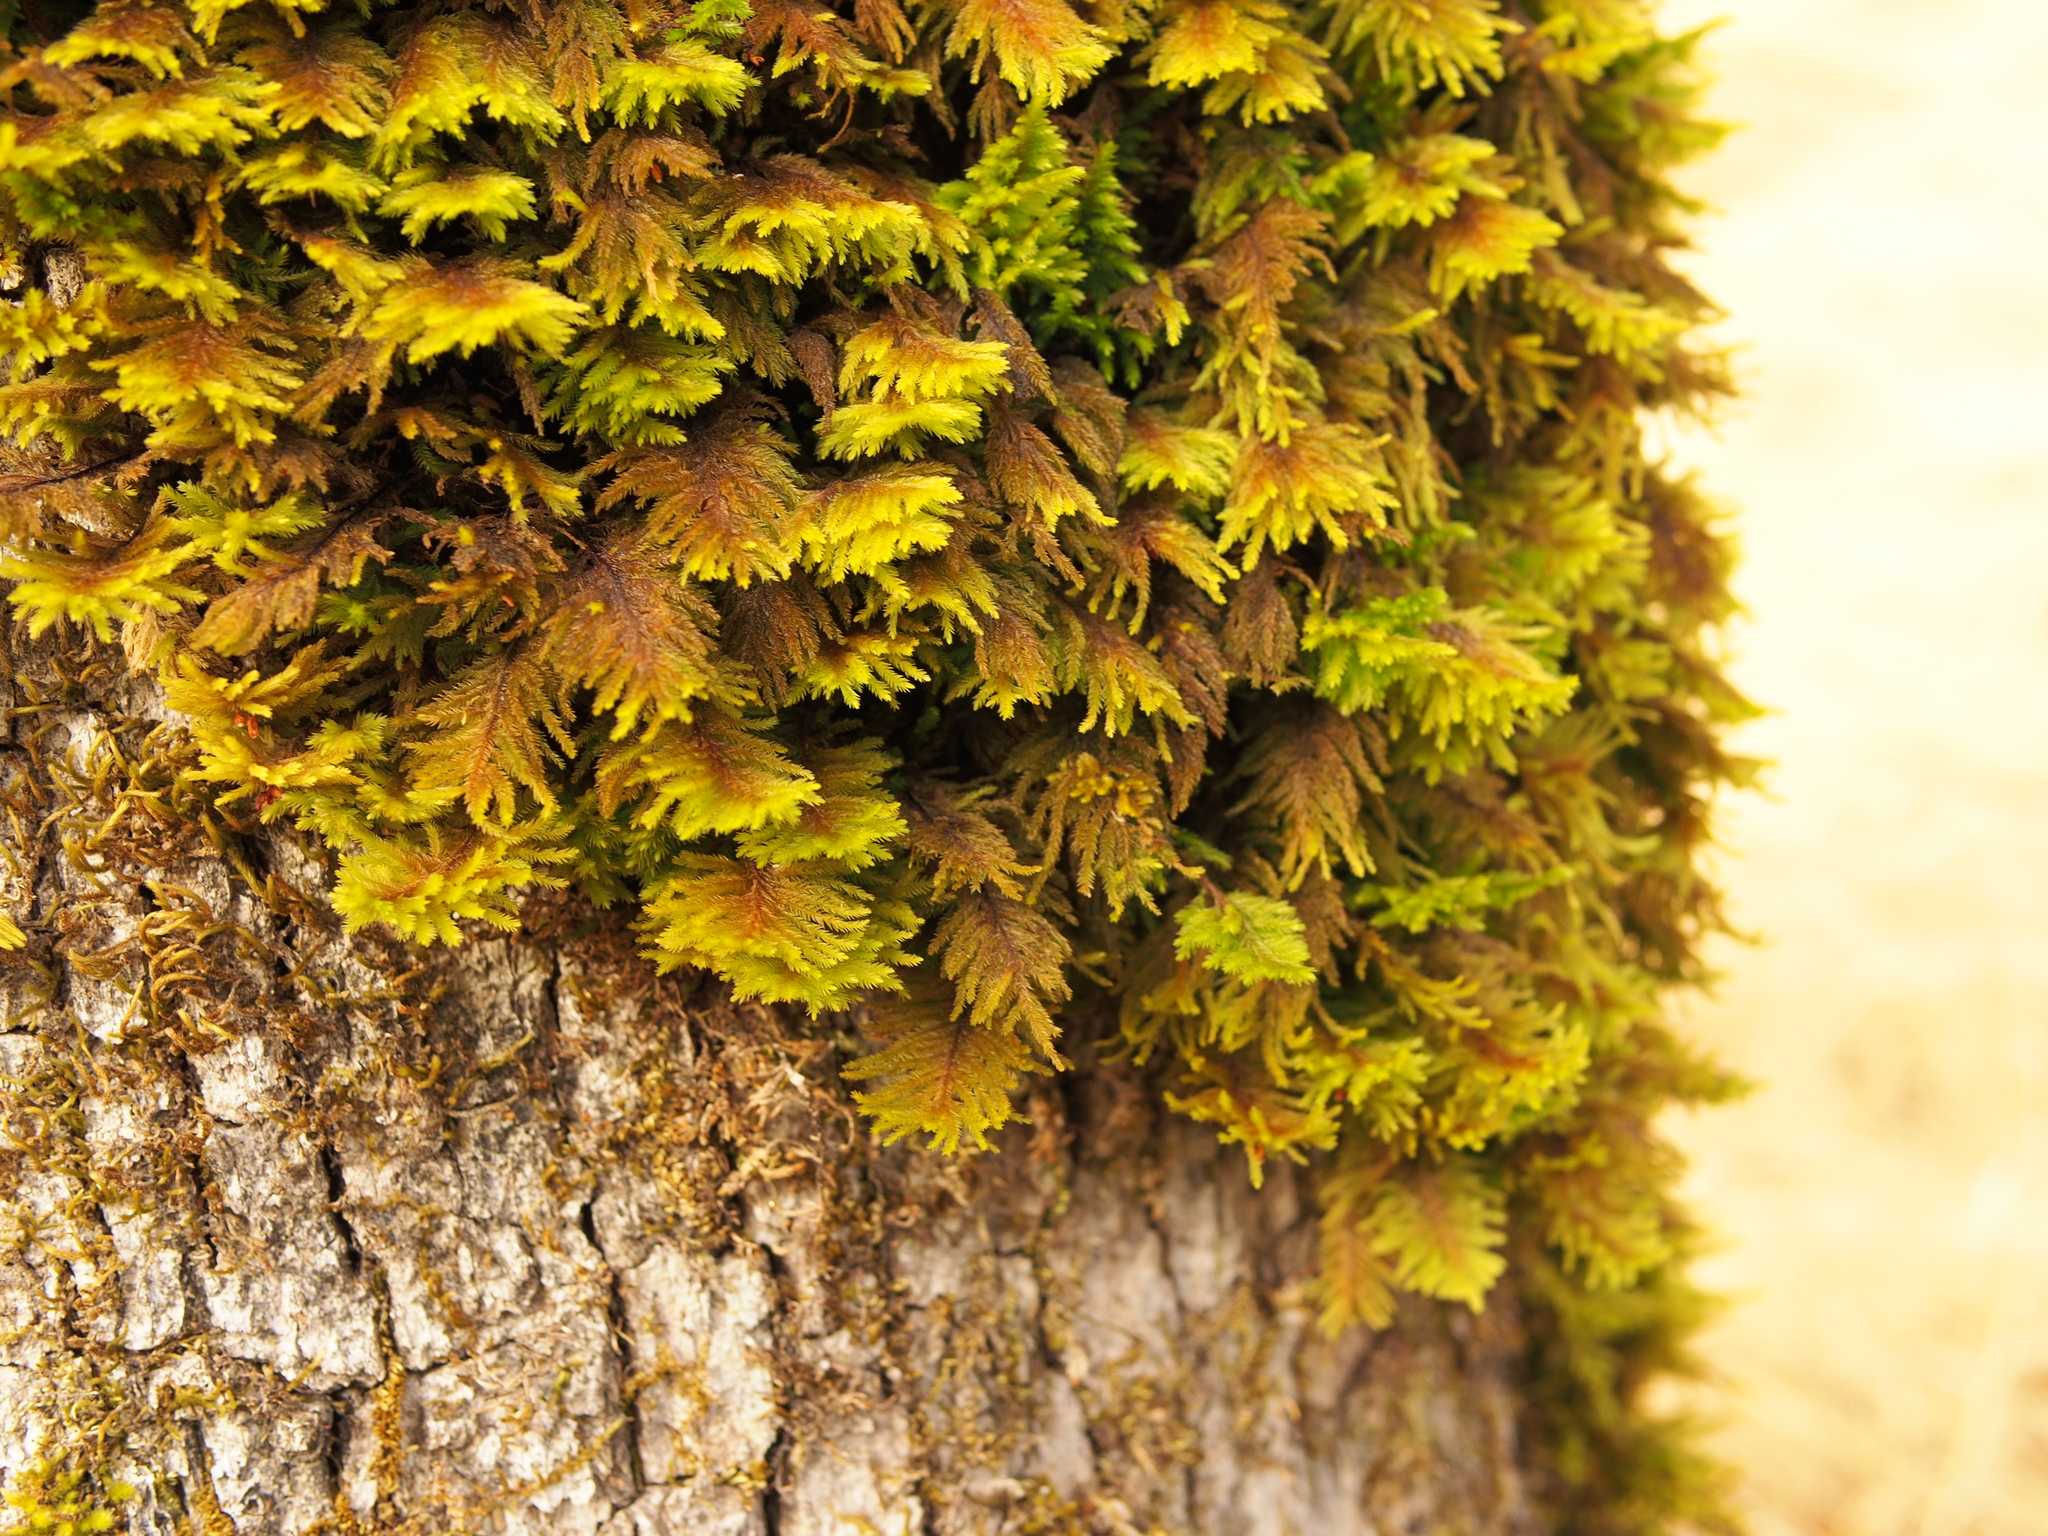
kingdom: Plantae
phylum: Bryophyta
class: Bryopsida
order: Hypnales
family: Cryphaeaceae
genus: Dendroalsia
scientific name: Dendroalsia abietina
